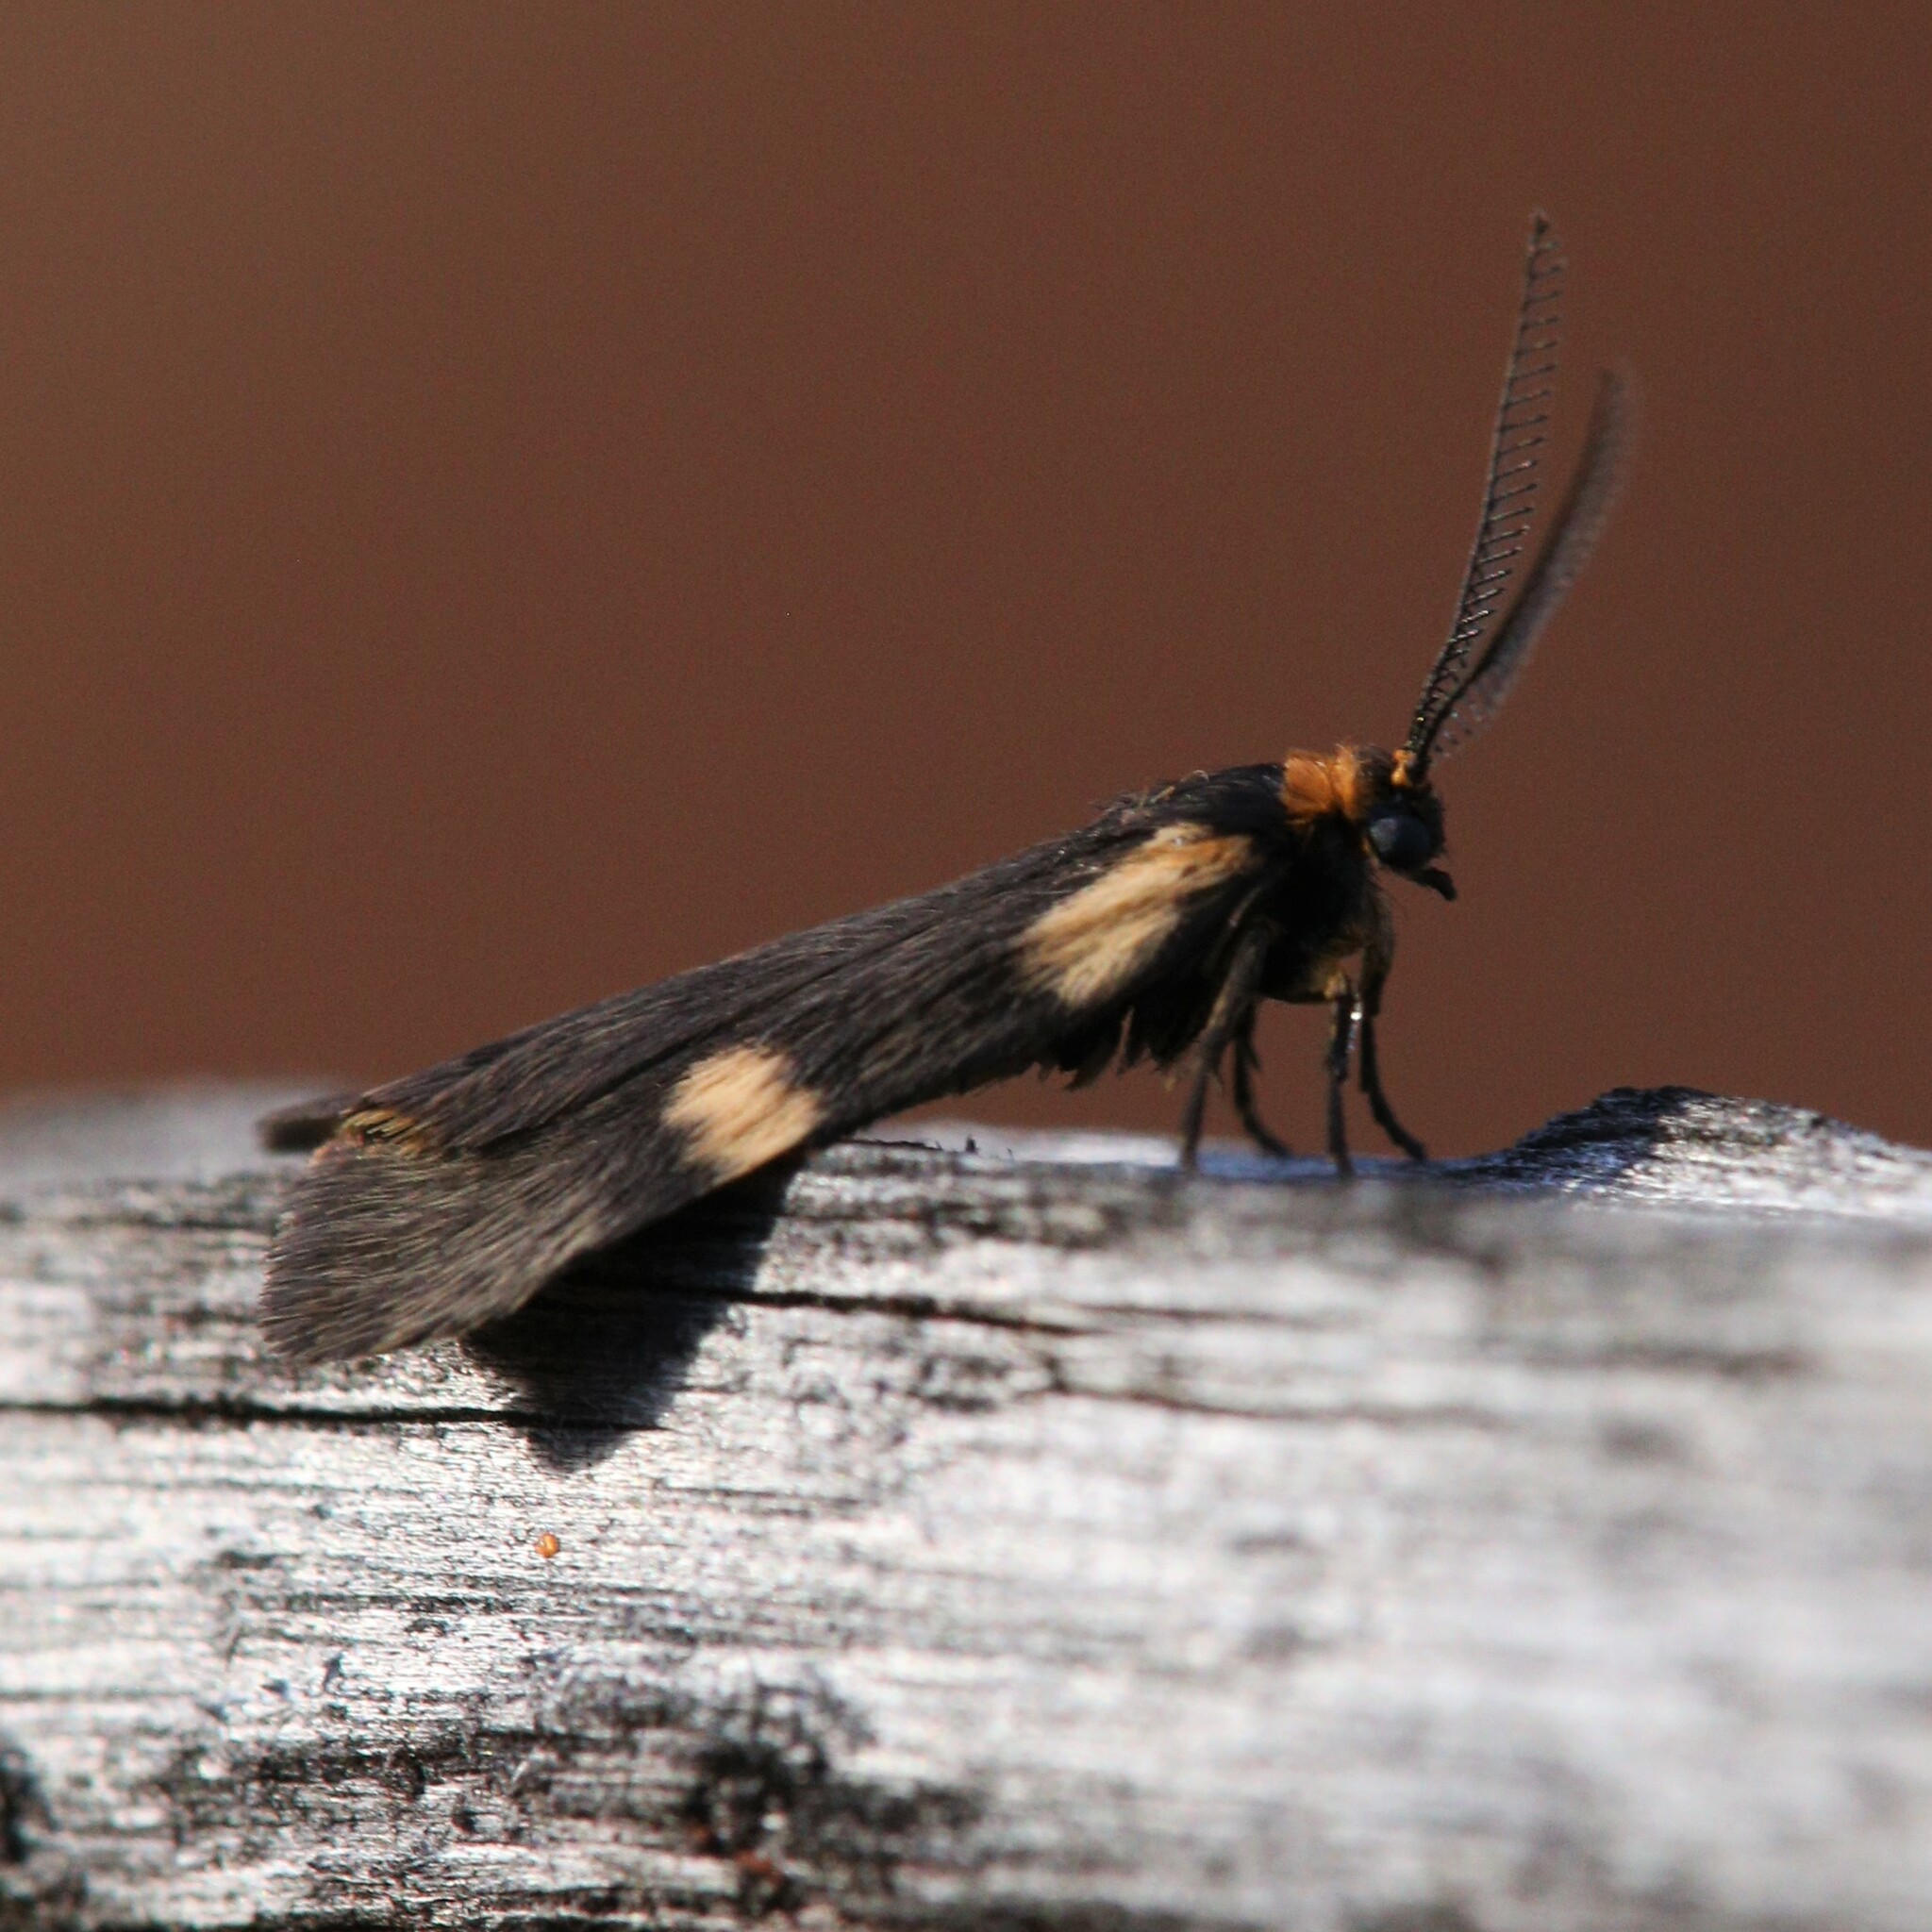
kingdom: Animalia
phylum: Arthropoda
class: Insecta
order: Lepidoptera
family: Erebidae
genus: Poliodule
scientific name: Poliodule melanotricha
